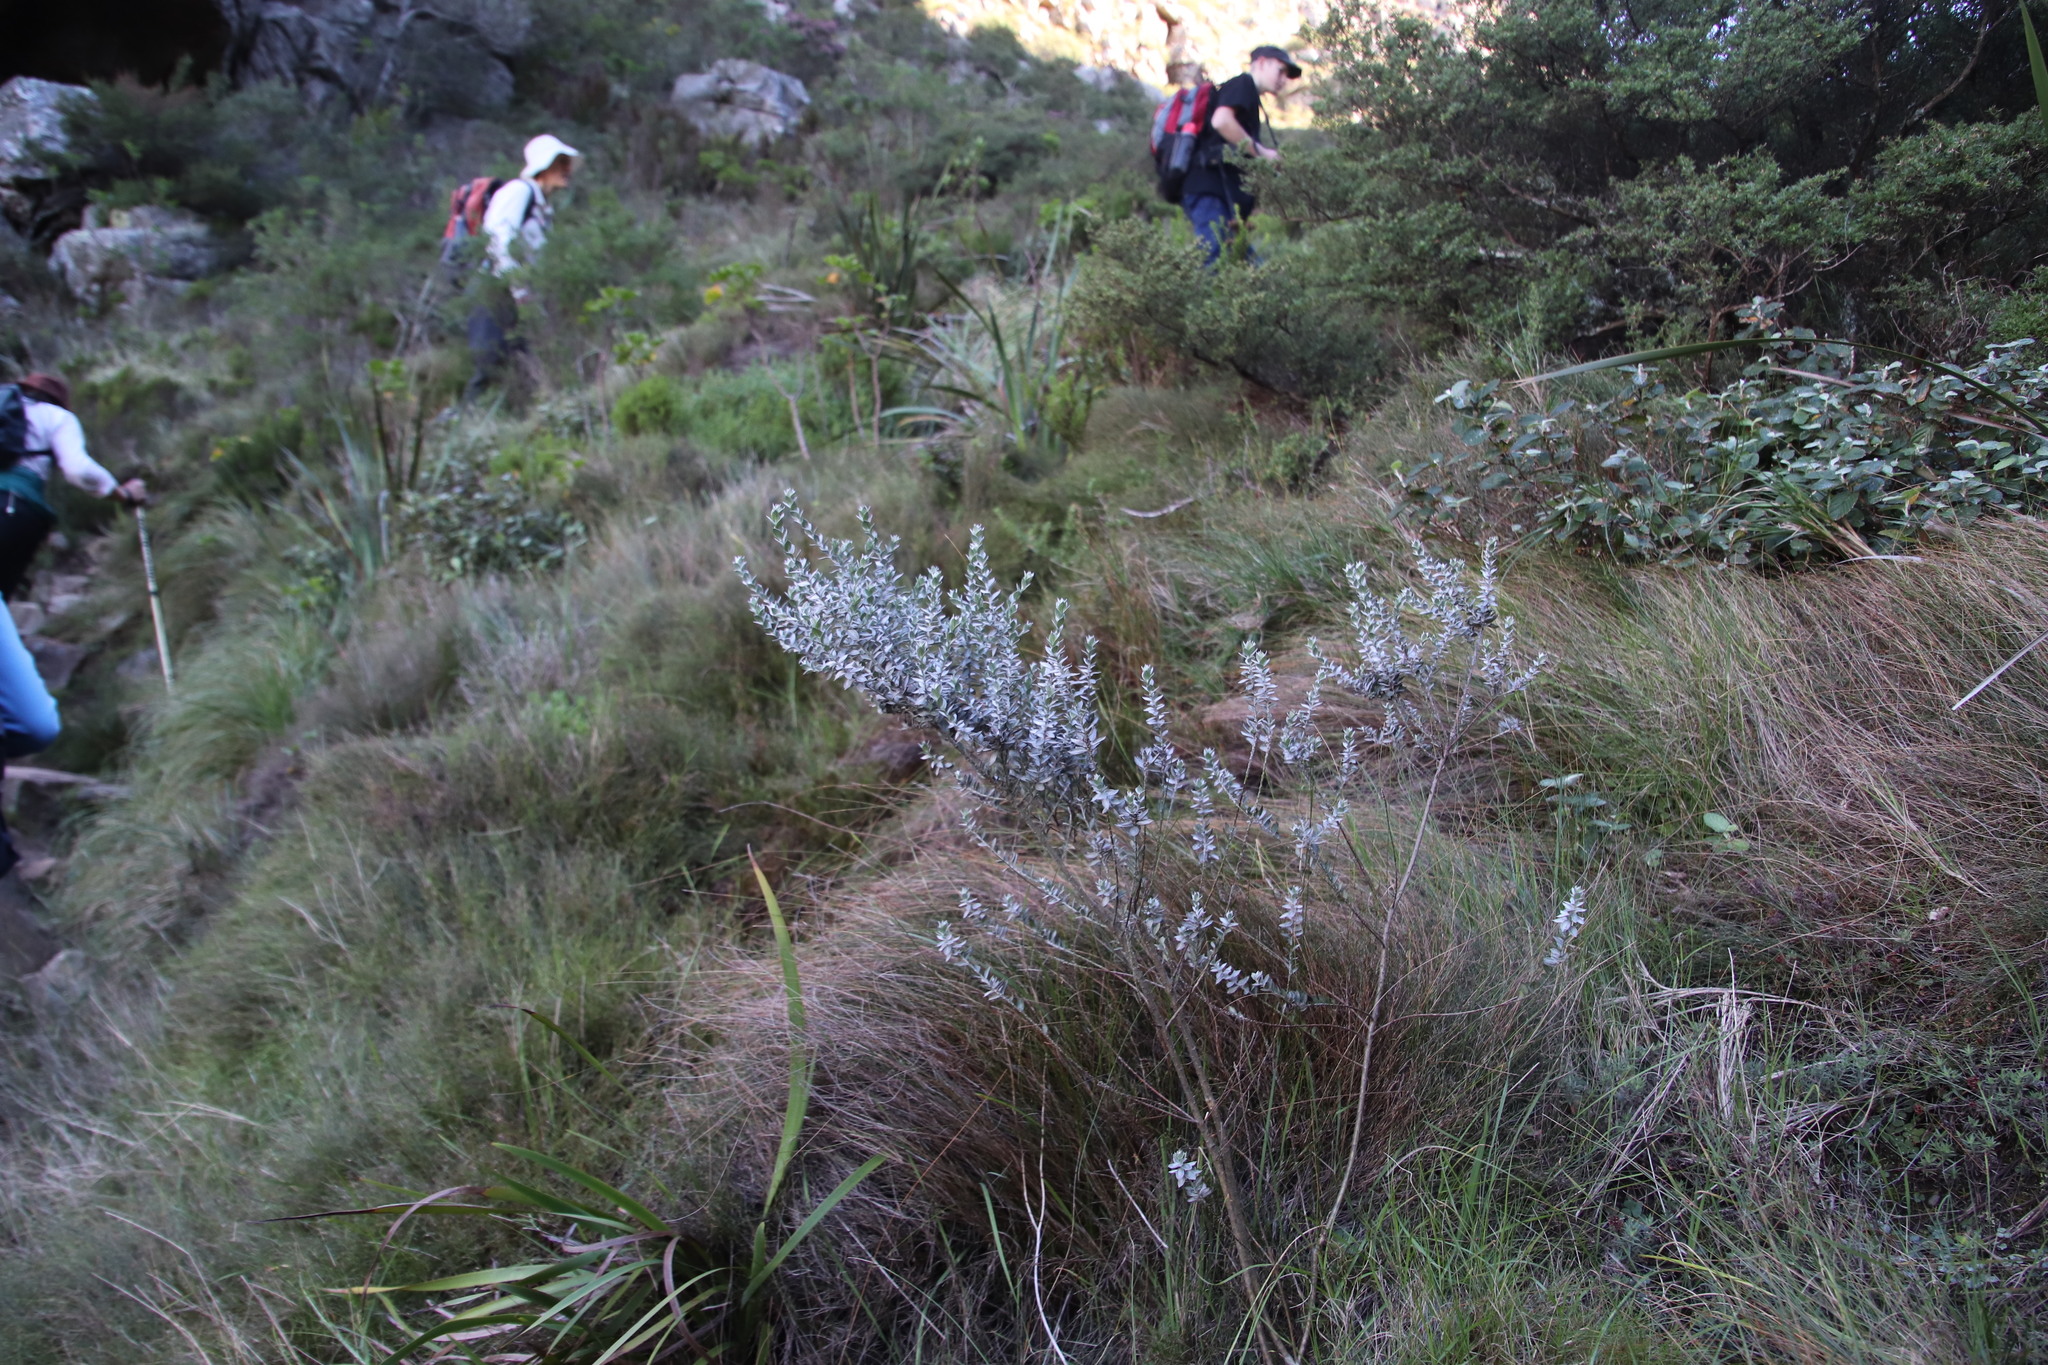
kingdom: Plantae
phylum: Tracheophyta
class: Magnoliopsida
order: Fabales
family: Fabaceae
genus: Amphithalea
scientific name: Amphithalea imbricata
